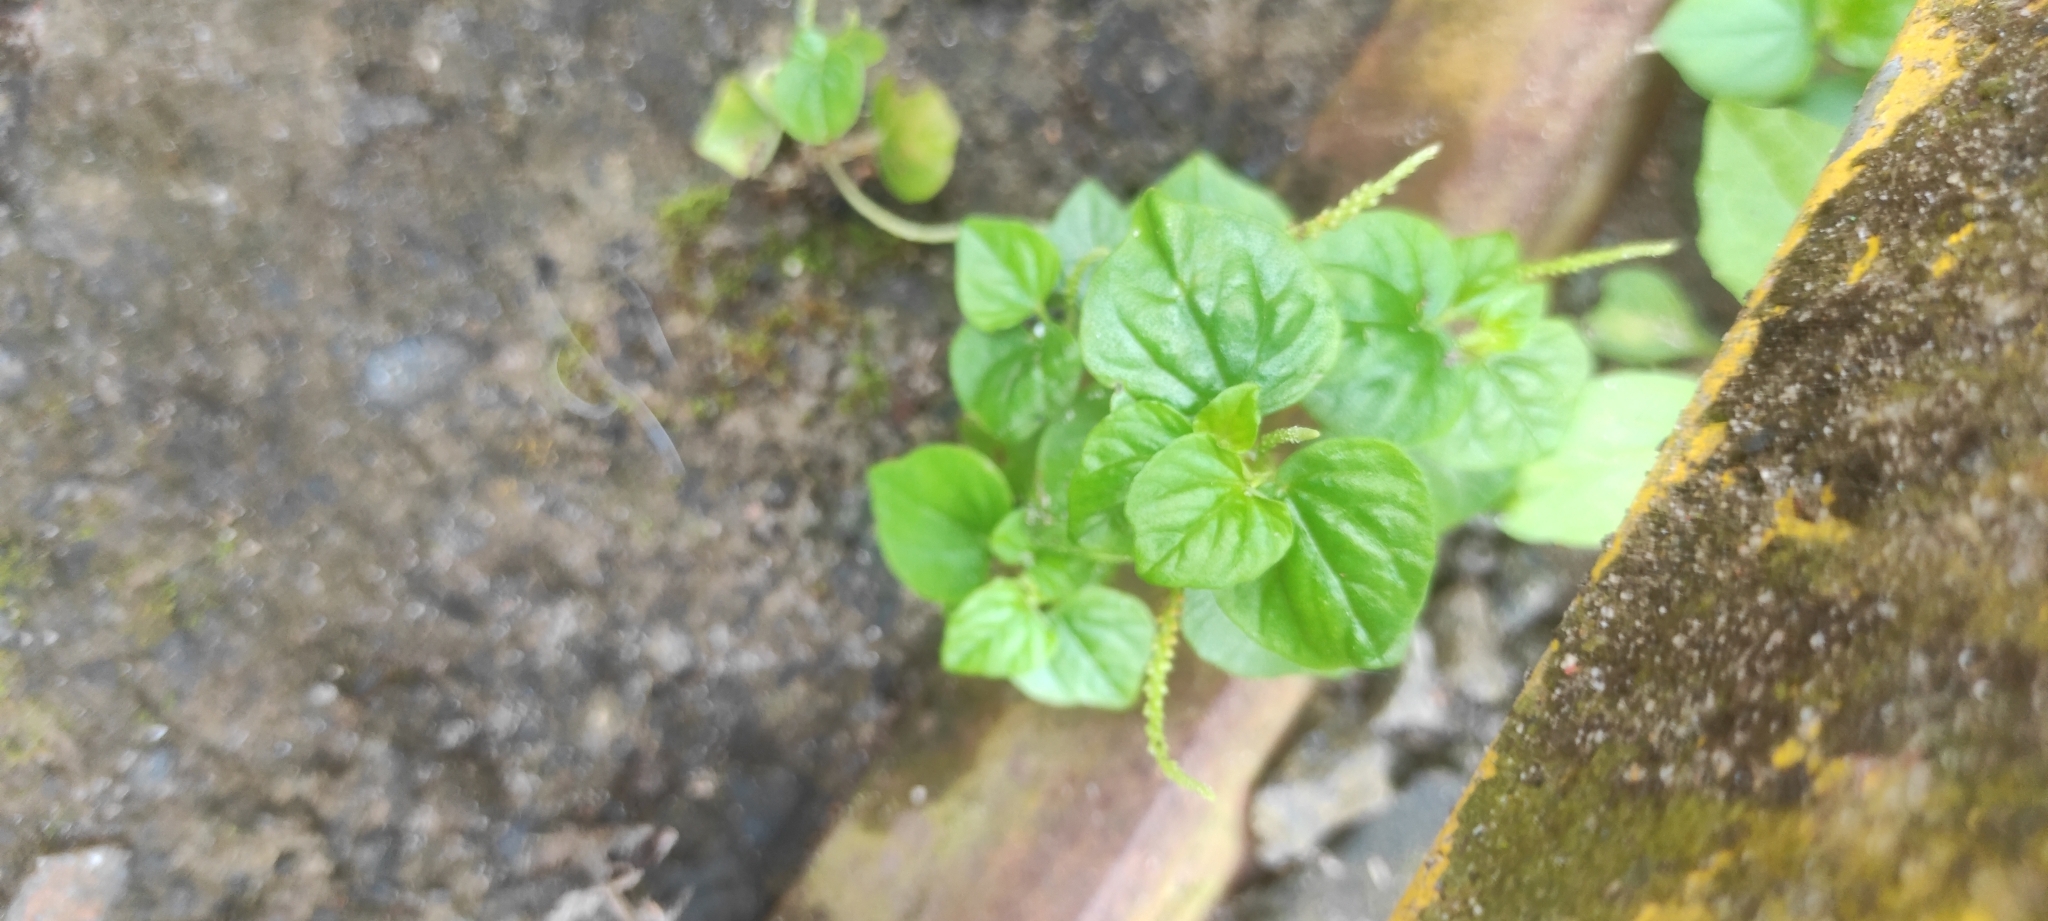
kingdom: Plantae
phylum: Tracheophyta
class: Magnoliopsida
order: Piperales
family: Piperaceae
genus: Peperomia
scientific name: Peperomia pellucida
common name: Man to man
